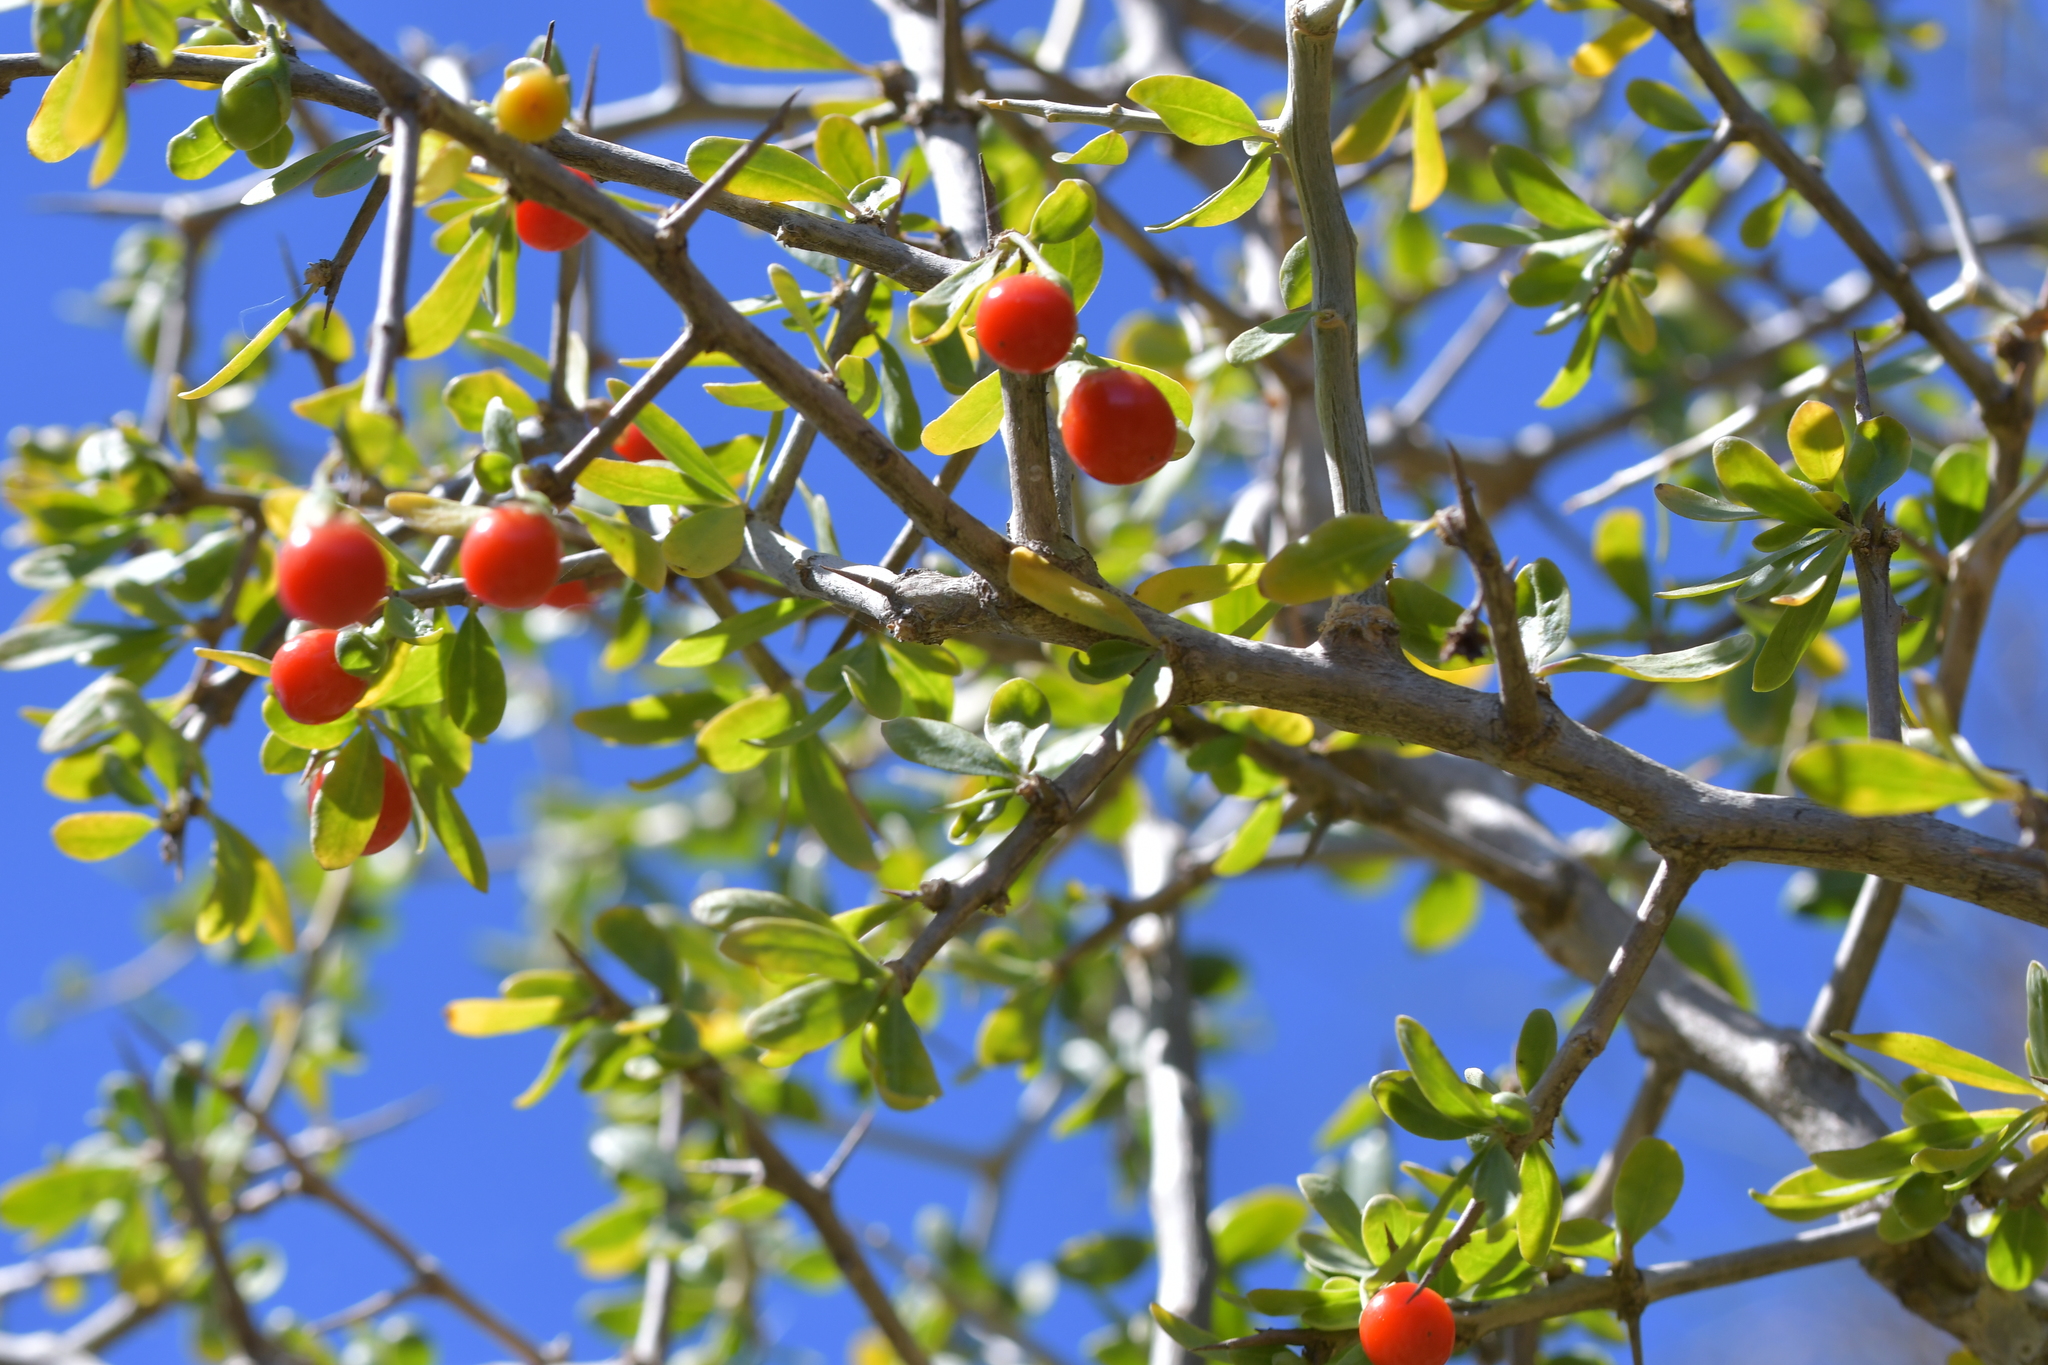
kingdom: Plantae
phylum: Tracheophyta
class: Magnoliopsida
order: Solanales
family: Solanaceae
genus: Lycium
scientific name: Lycium ferocissimum
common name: African boxthorn
